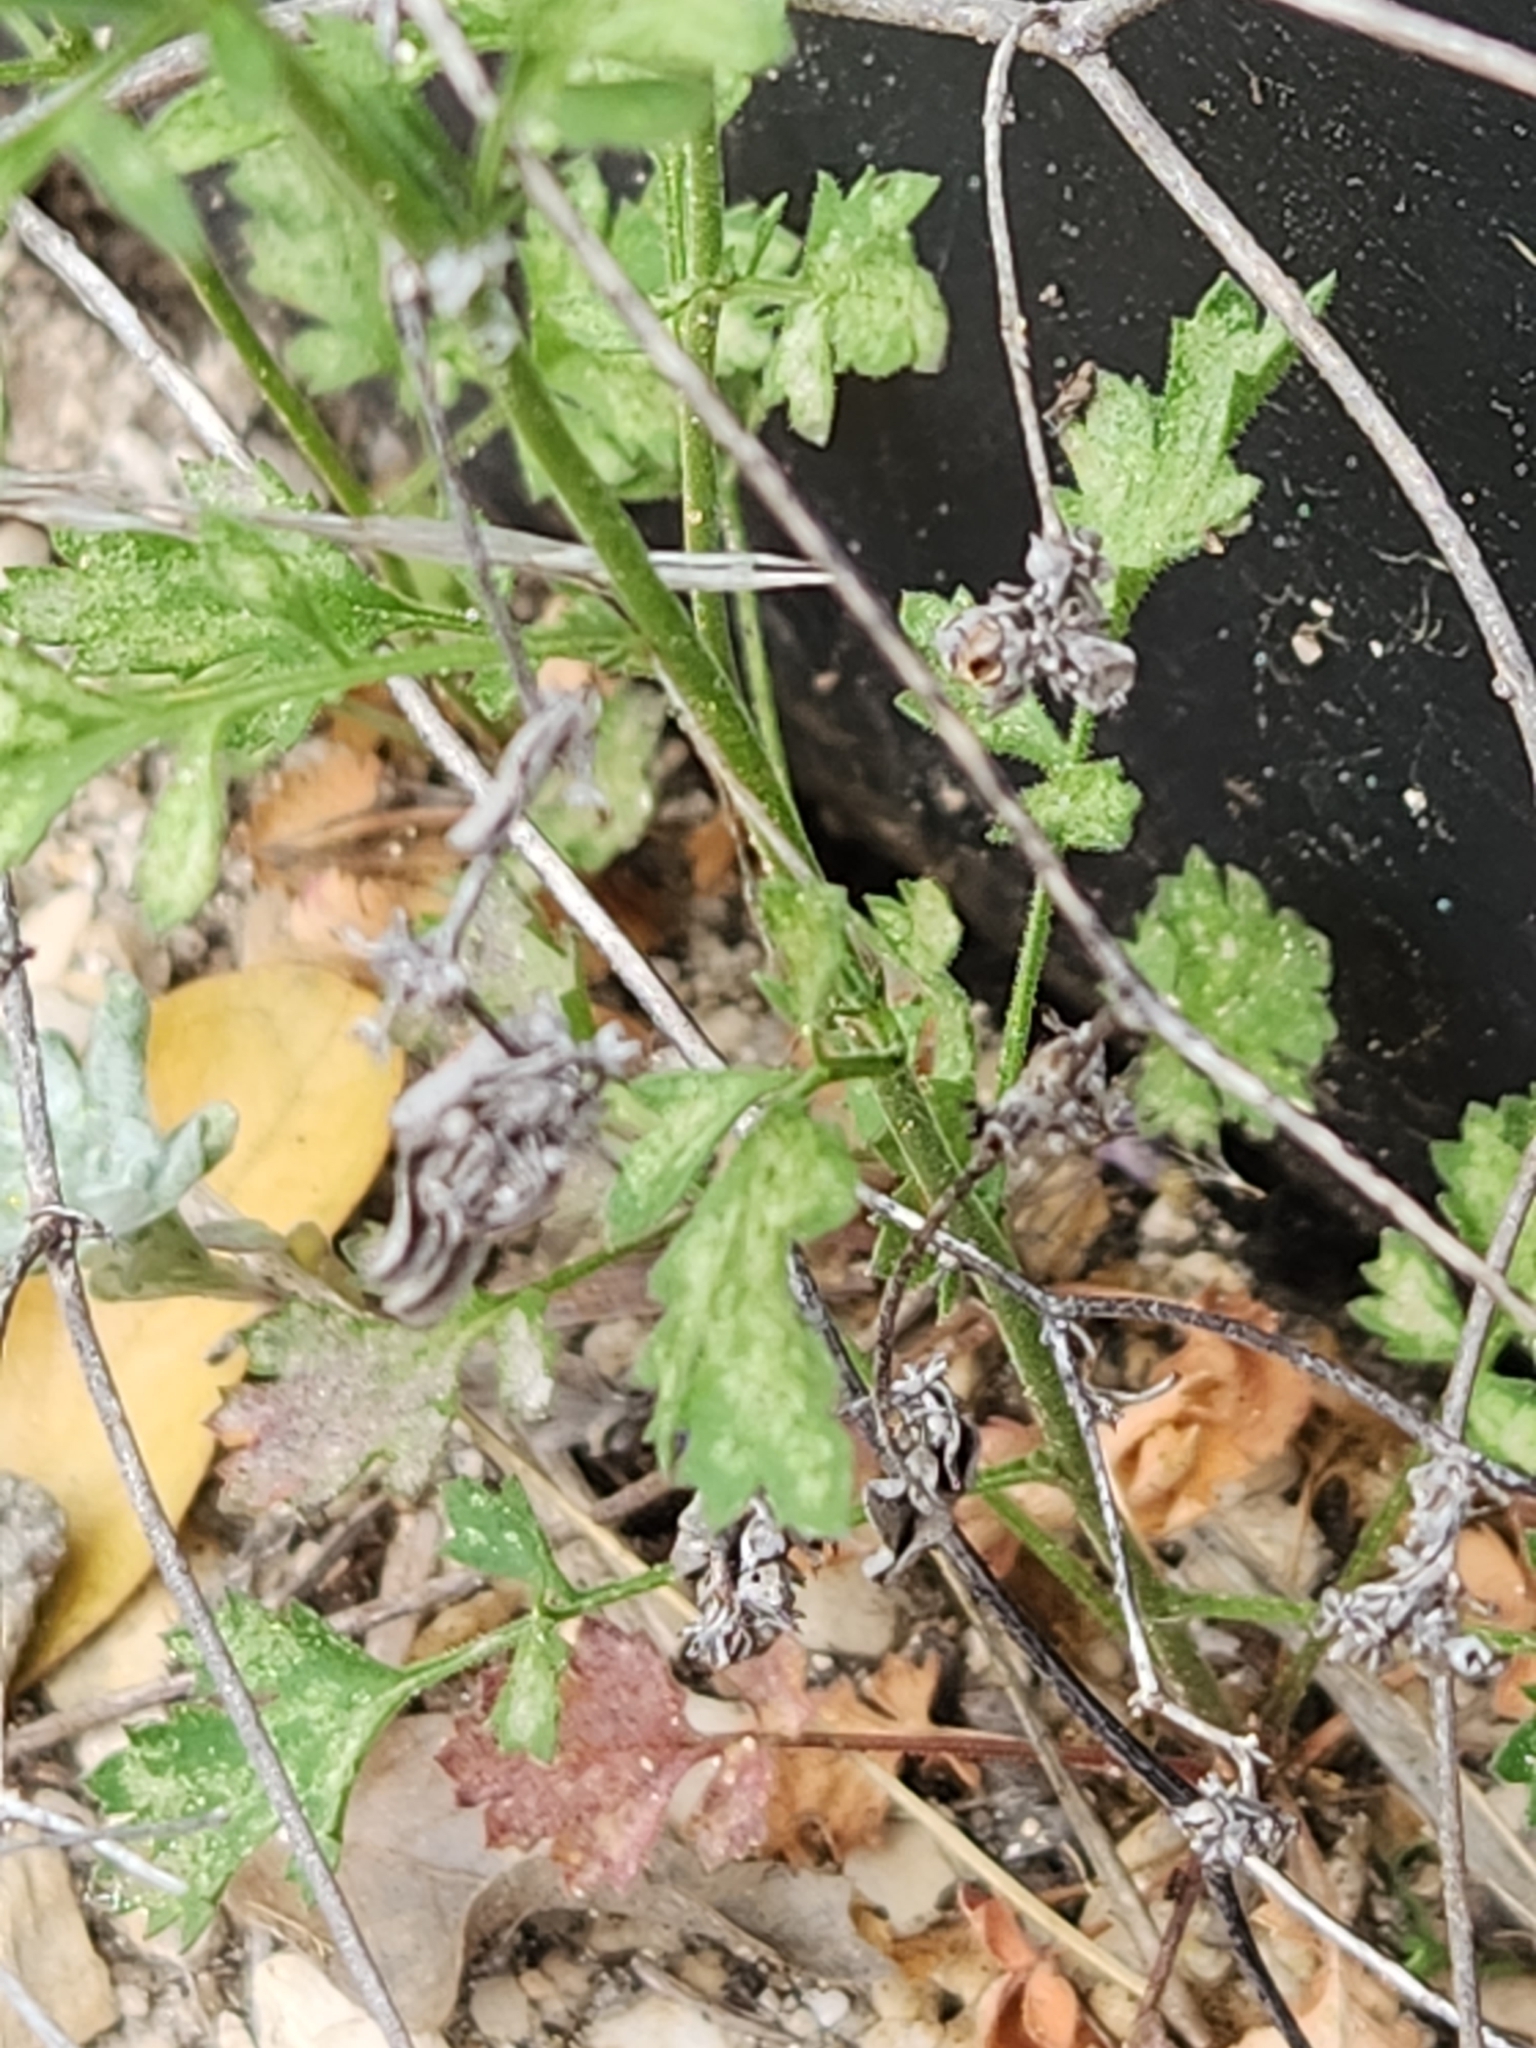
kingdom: Plantae
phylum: Tracheophyta
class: Magnoliopsida
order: Ericales
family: Polemoniaceae
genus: Giliastrum
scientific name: Giliastrum incisum
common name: Splitleaf gilia
